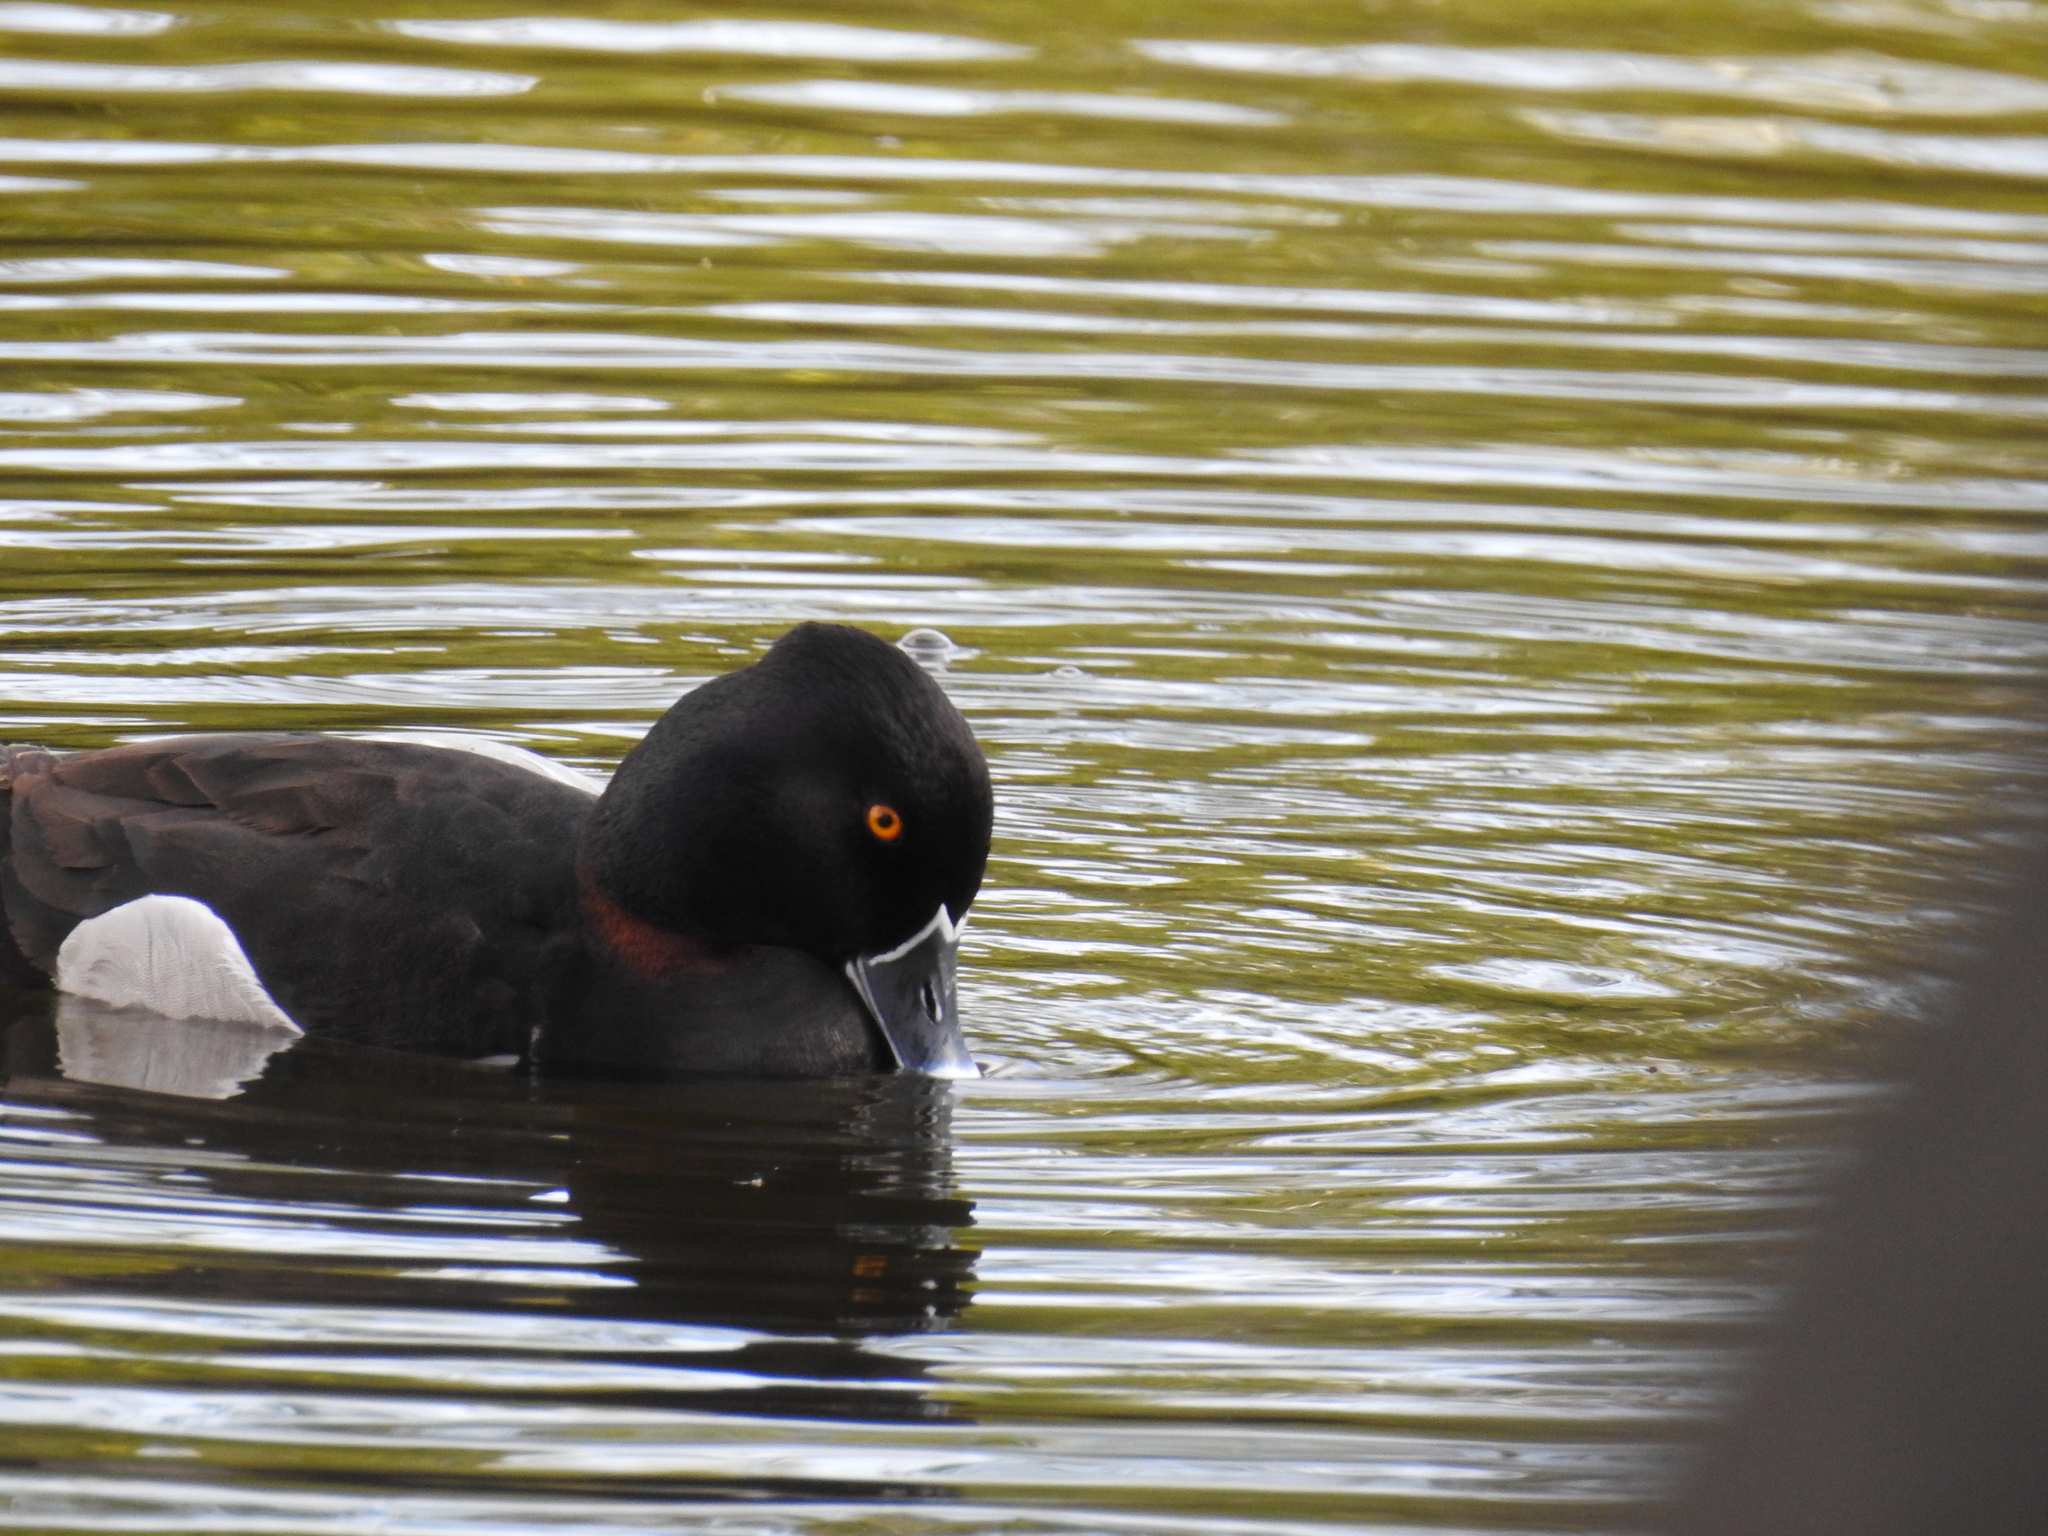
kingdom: Animalia
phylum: Chordata
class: Aves
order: Anseriformes
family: Anatidae
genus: Aythya
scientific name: Aythya collaris
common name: Ring-necked duck
